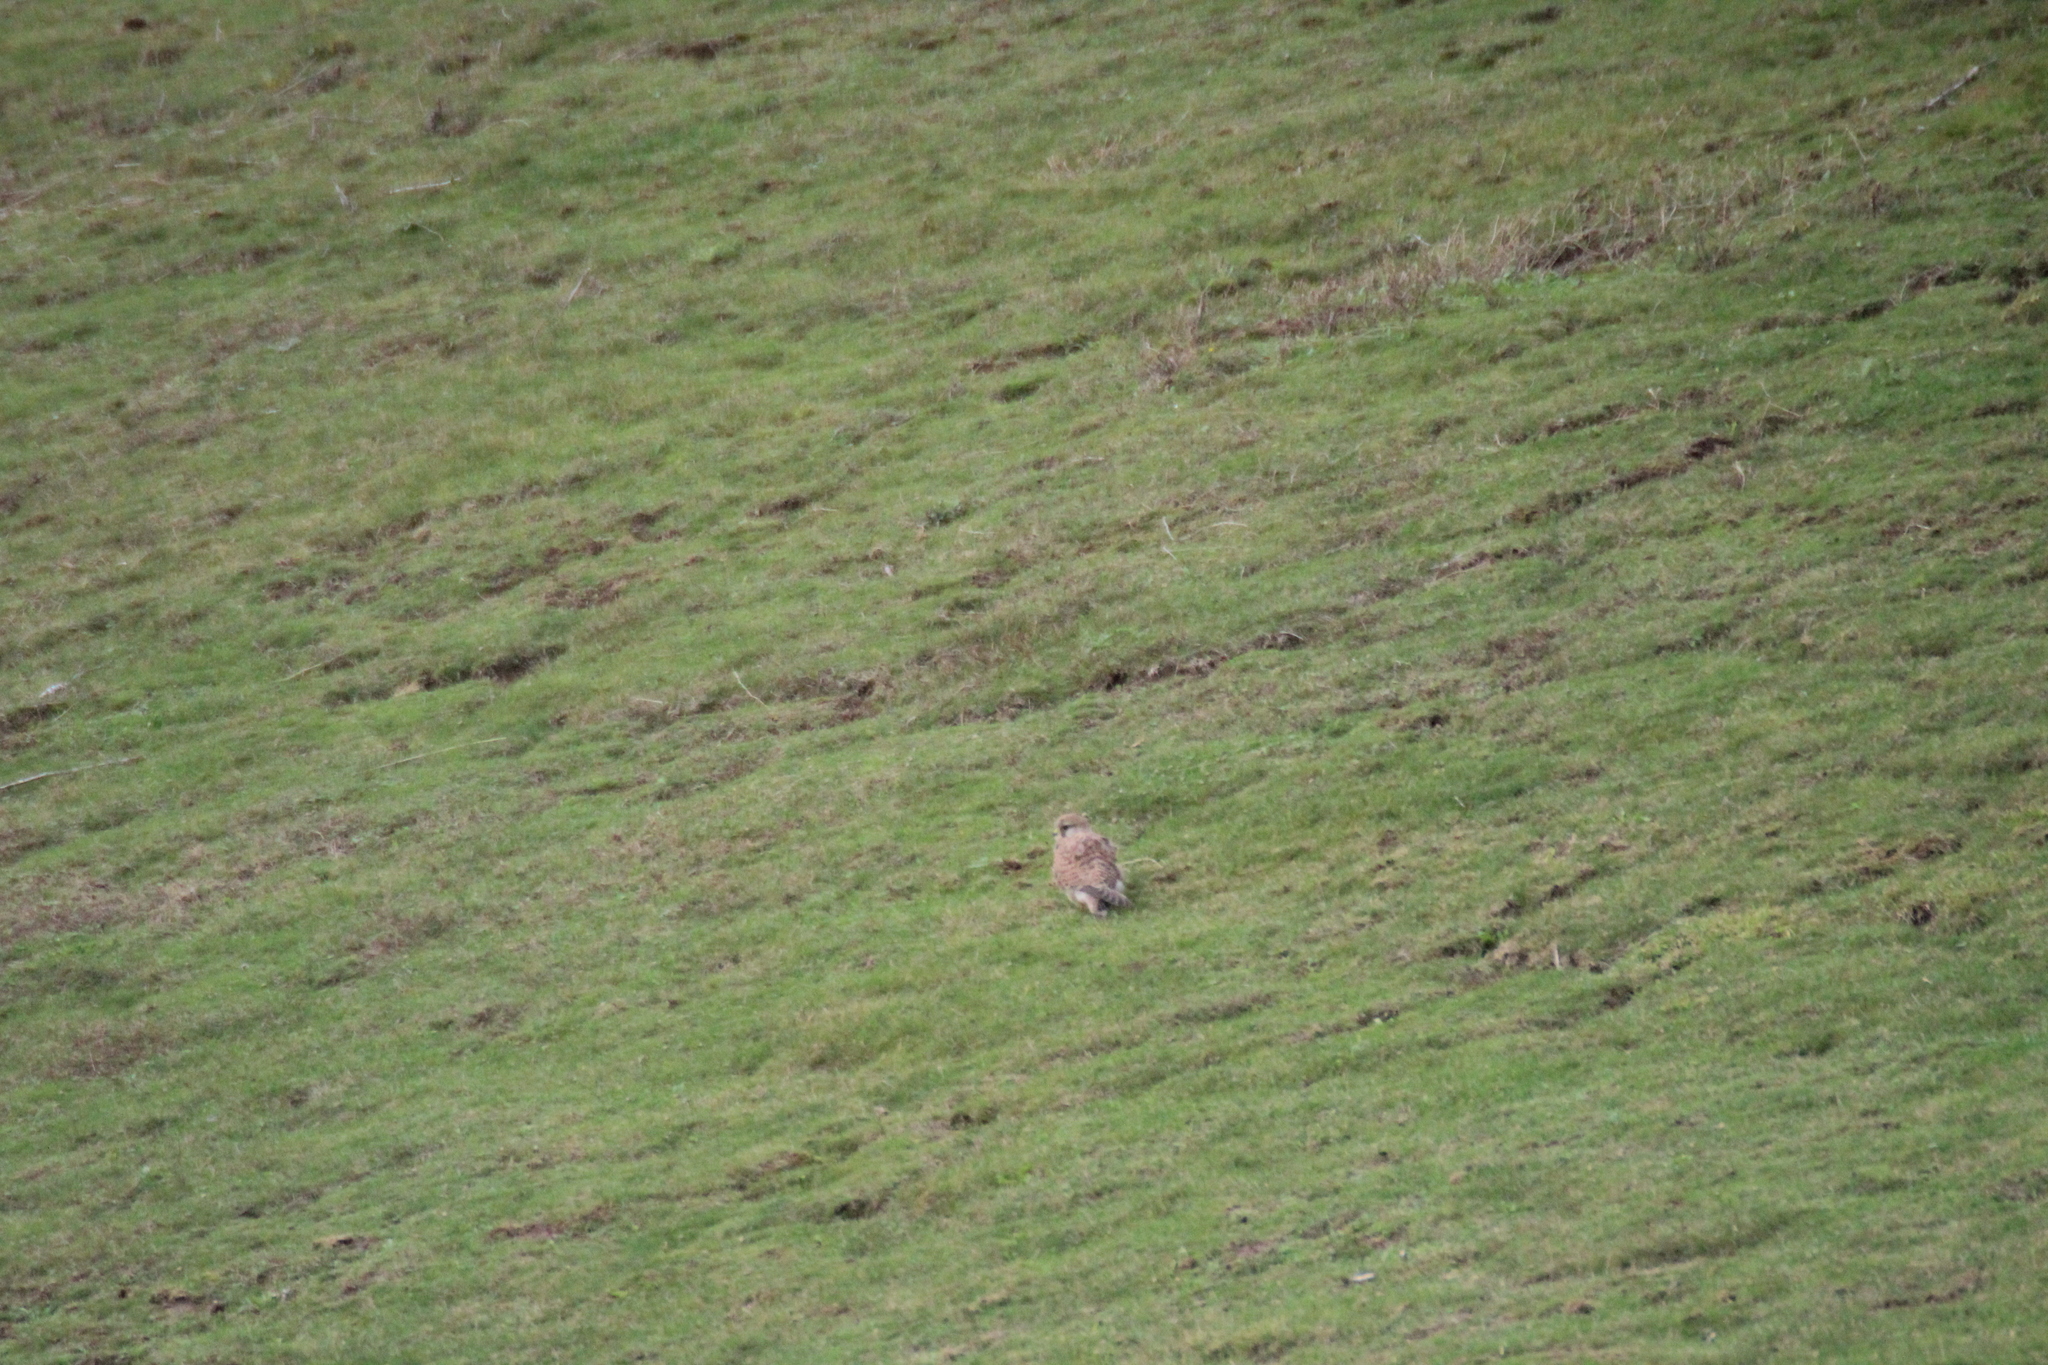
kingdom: Animalia
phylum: Chordata
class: Aves
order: Falconiformes
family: Falconidae
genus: Falco
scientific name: Falco tinnunculus
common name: Common kestrel
